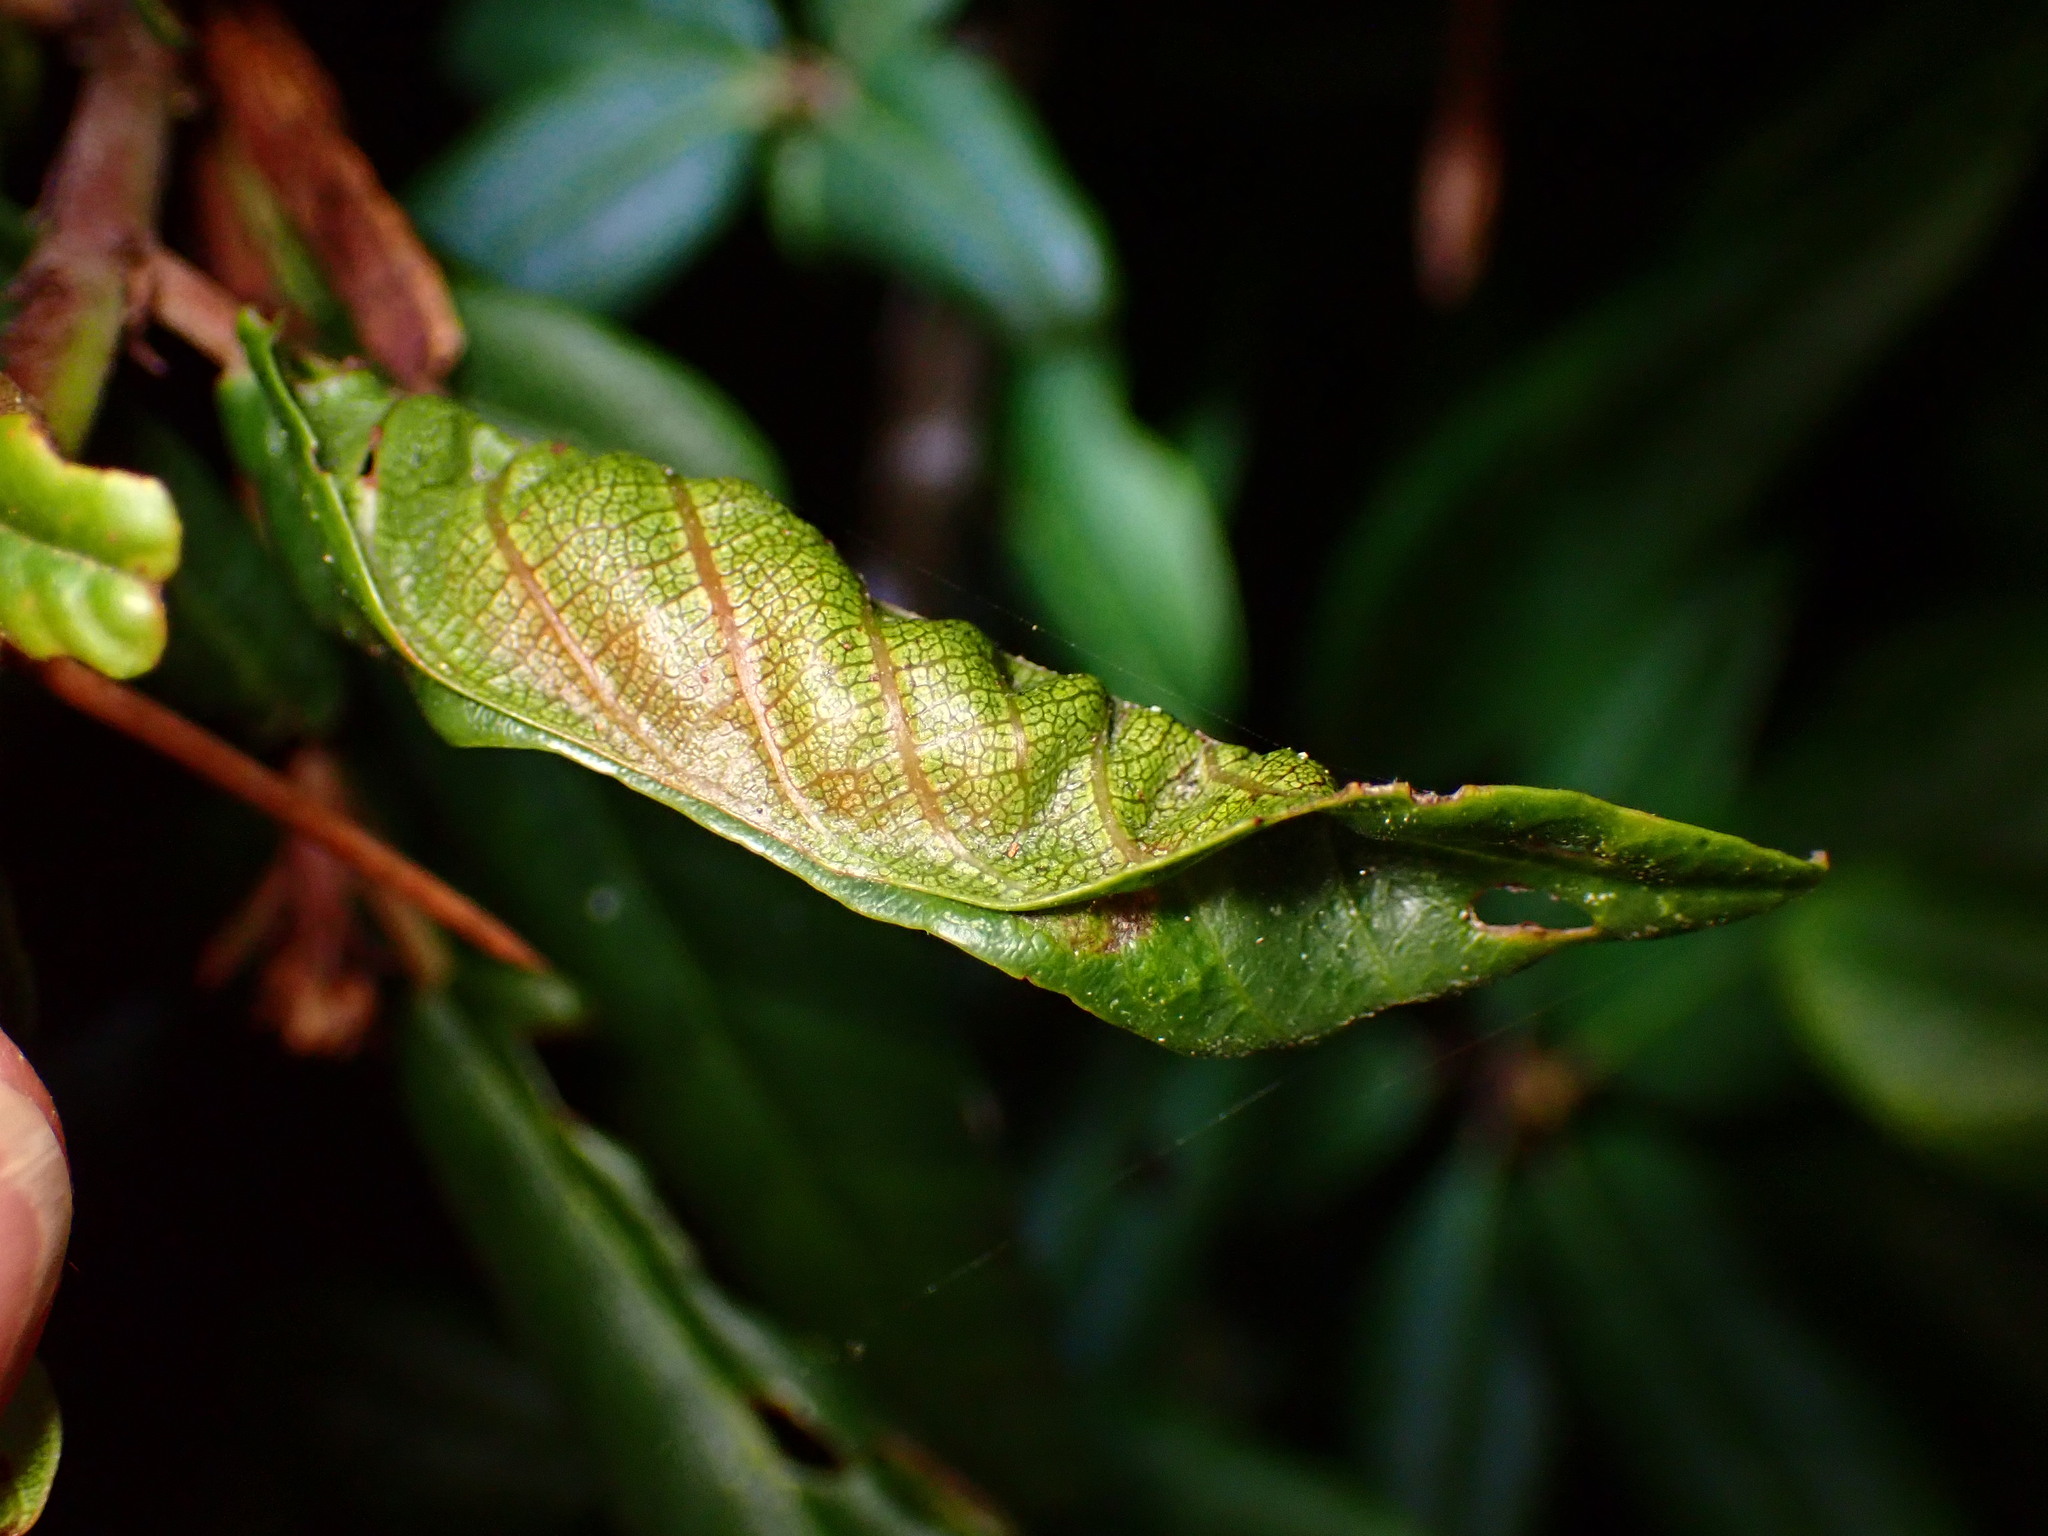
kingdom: Animalia
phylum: Arthropoda
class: Insecta
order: Lepidoptera
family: Cosmopterigidae
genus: Sorhagenia
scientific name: Sorhagenia nimbosus
